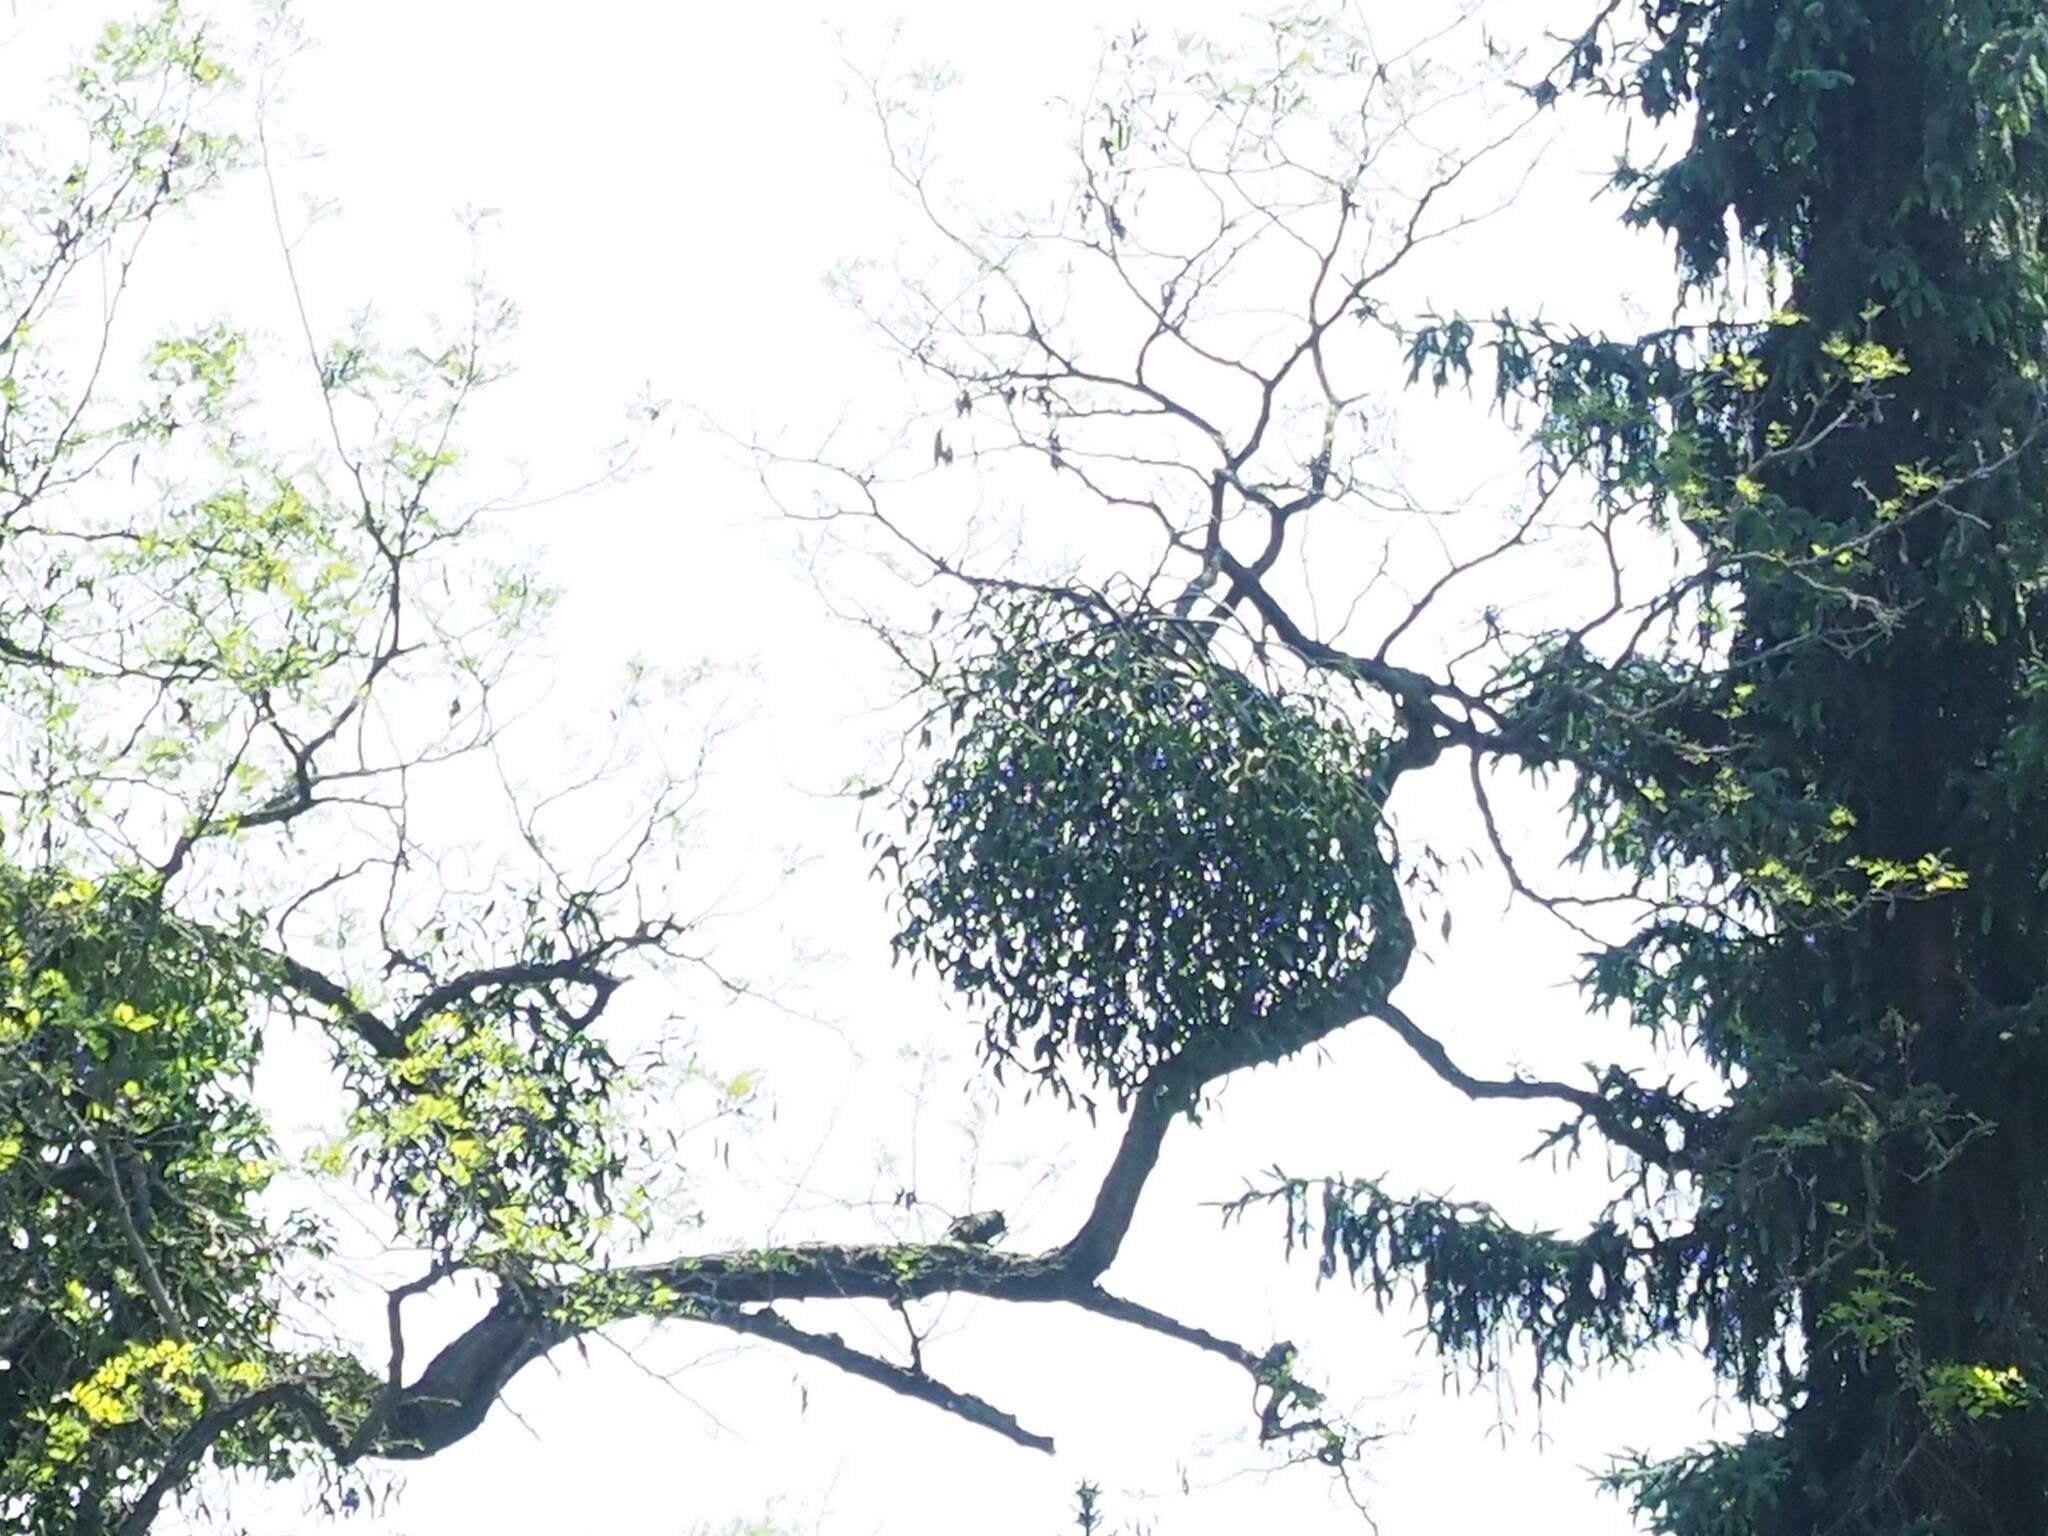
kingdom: Plantae
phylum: Tracheophyta
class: Magnoliopsida
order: Santalales
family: Viscaceae
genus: Viscum
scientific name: Viscum album
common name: Mistletoe
